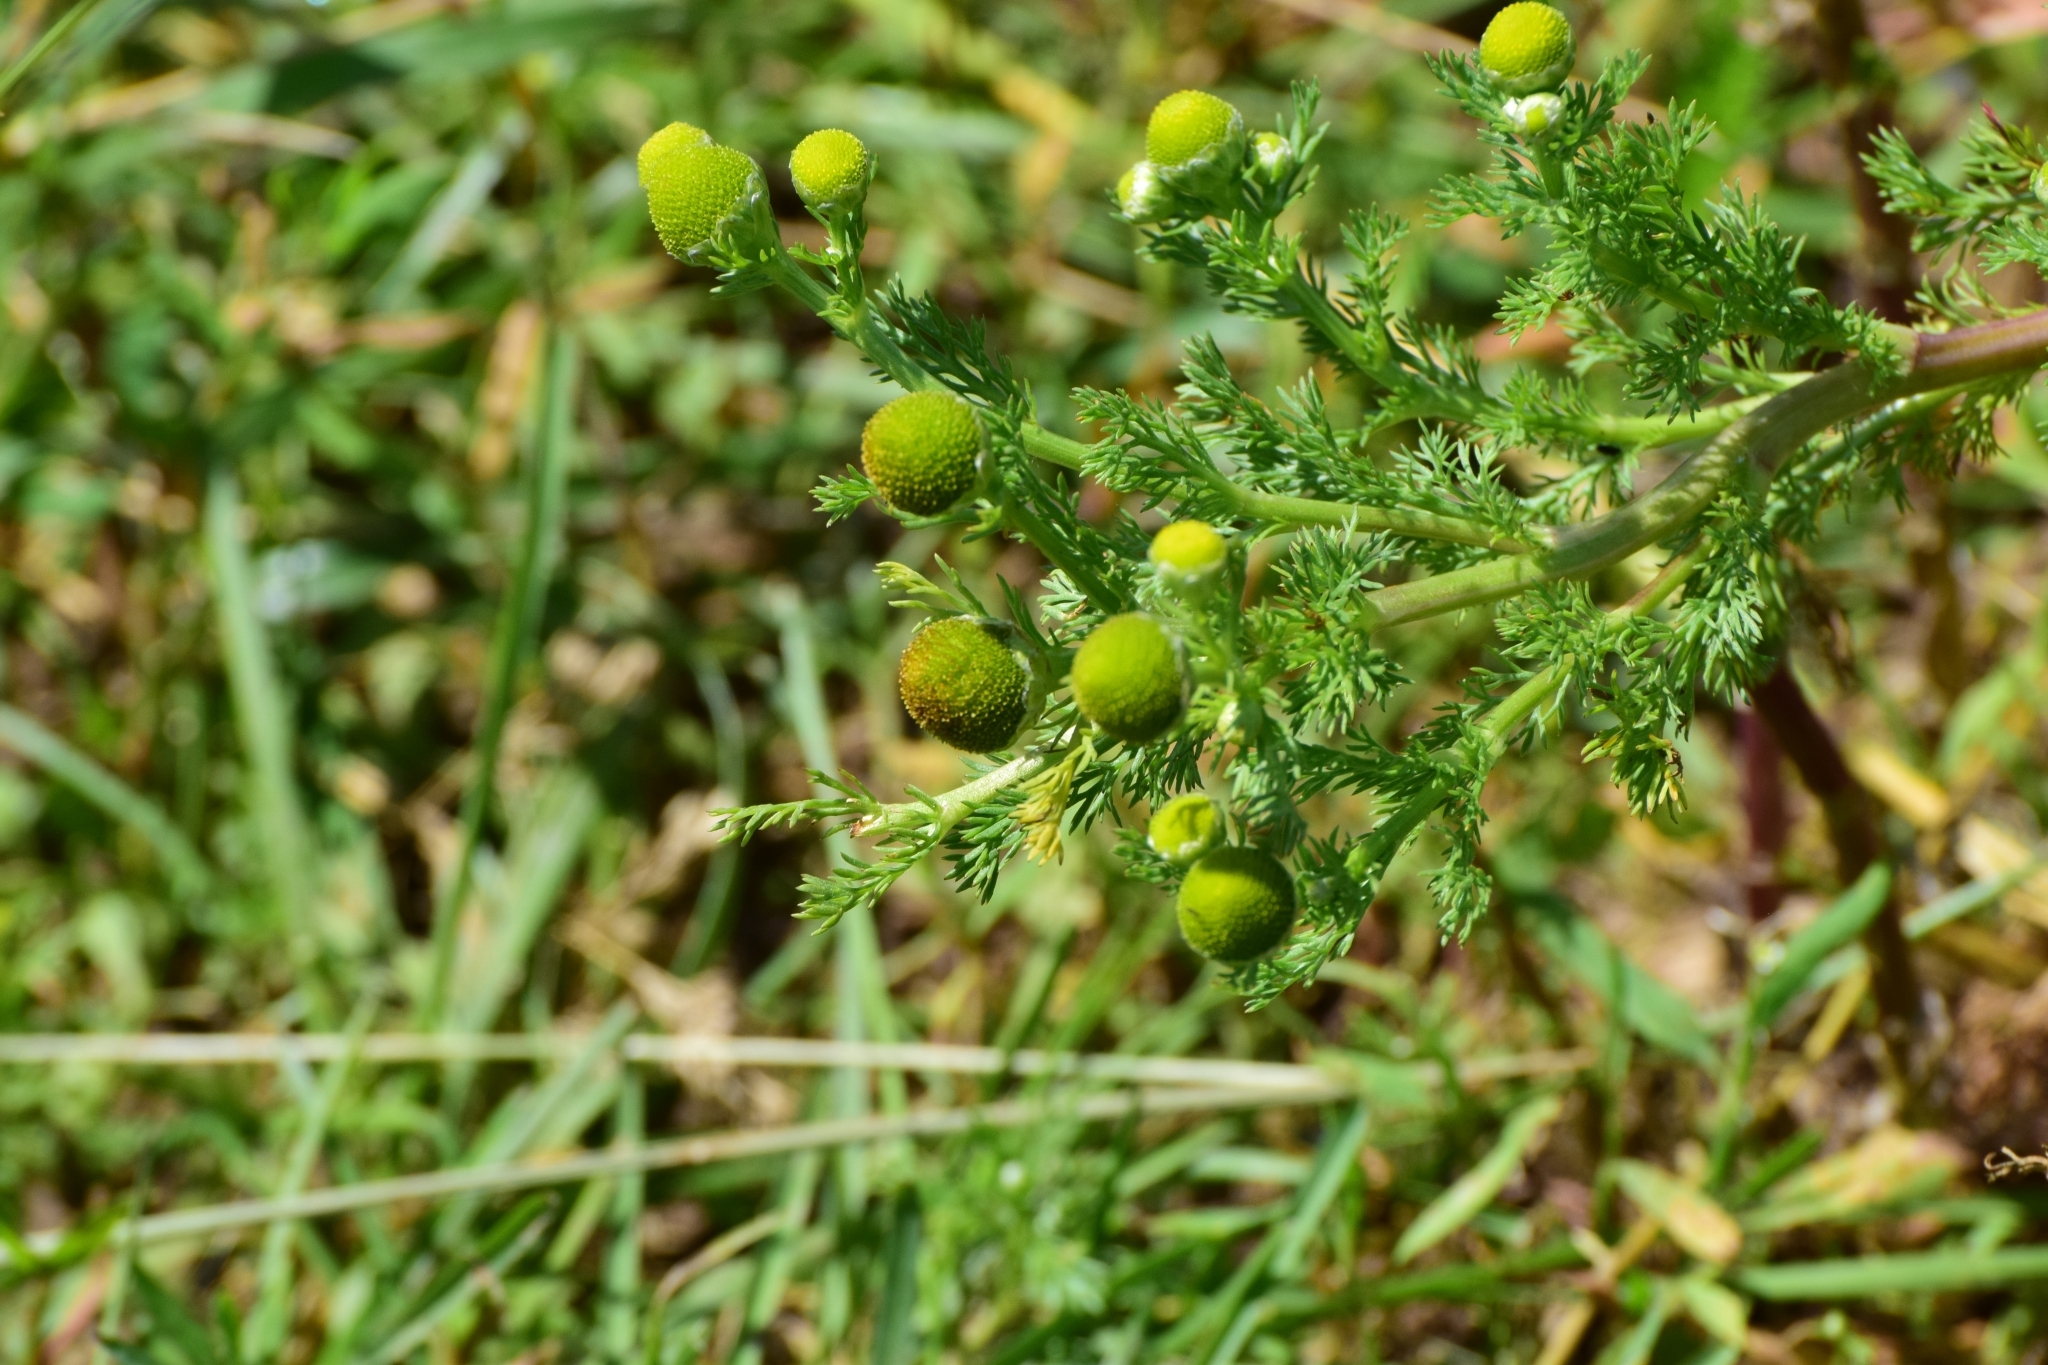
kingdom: Plantae
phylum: Tracheophyta
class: Magnoliopsida
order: Asterales
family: Asteraceae
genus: Matricaria
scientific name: Matricaria discoidea
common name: Disc mayweed
